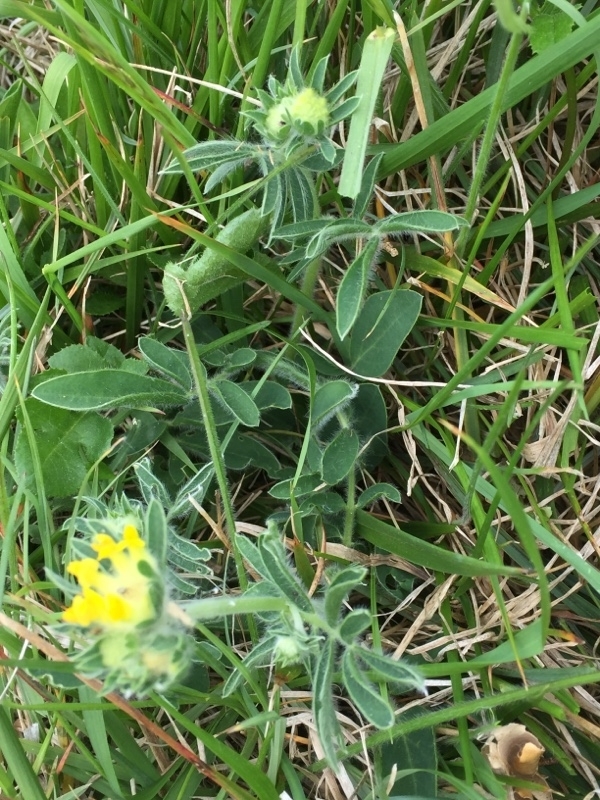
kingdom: Plantae
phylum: Tracheophyta
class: Magnoliopsida
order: Fabales
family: Fabaceae
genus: Anthyllis
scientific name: Anthyllis vulneraria
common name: Kidney vetch
